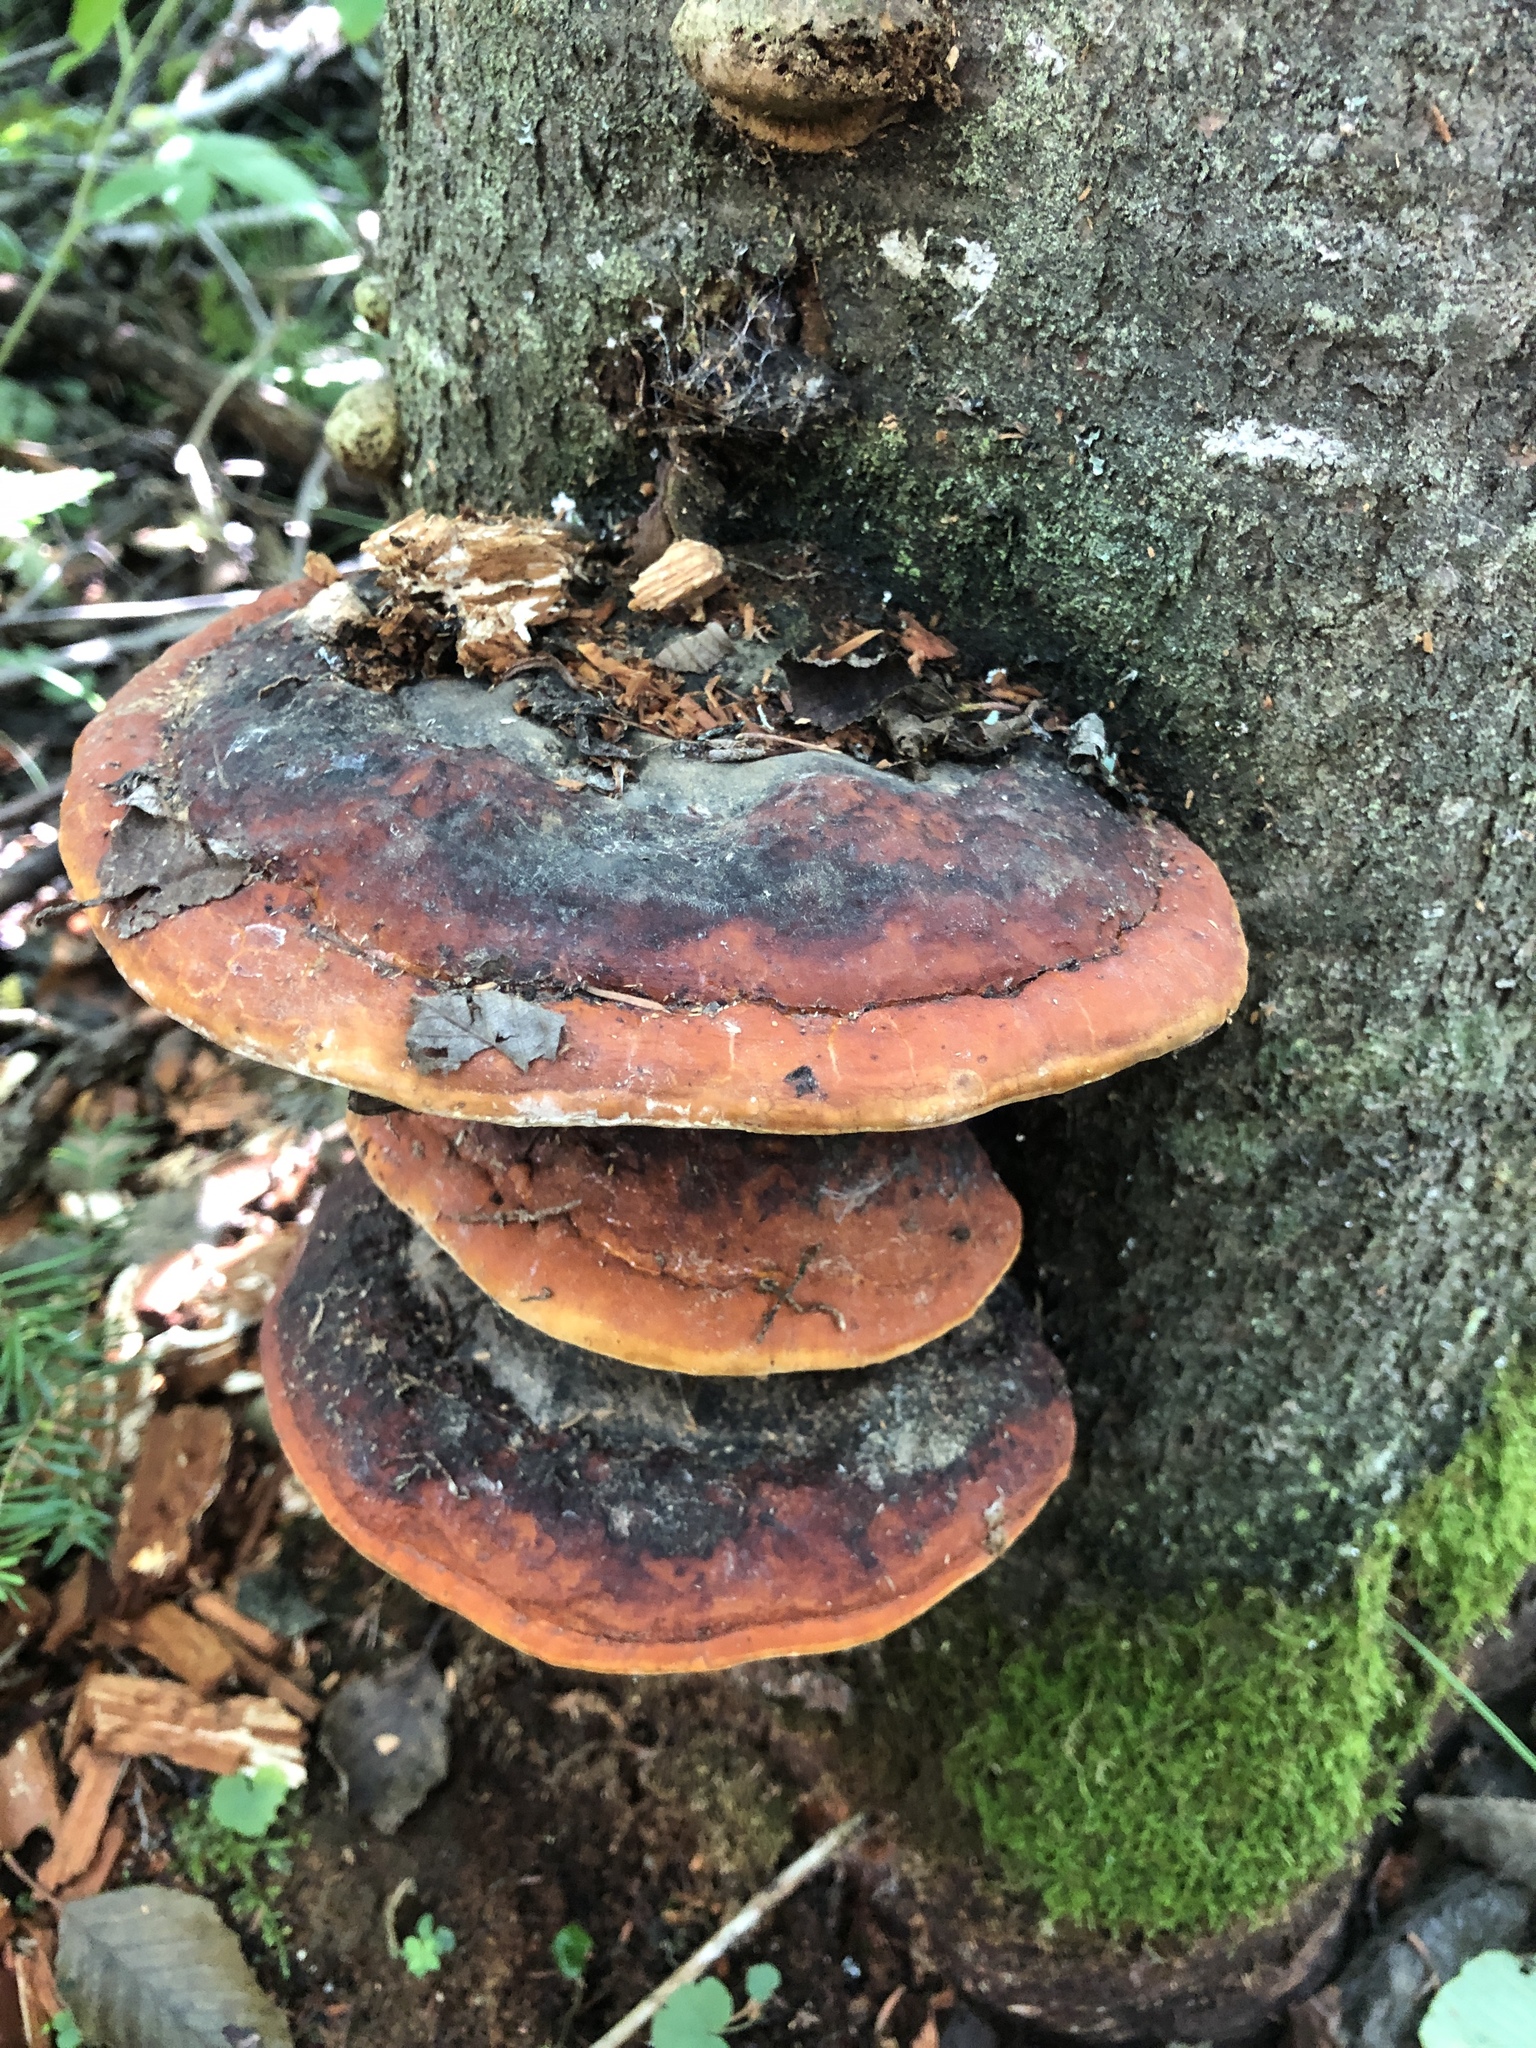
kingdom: Fungi
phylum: Basidiomycota
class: Agaricomycetes
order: Polyporales
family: Fomitopsidaceae
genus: Fomitopsis
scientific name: Fomitopsis mounceae
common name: Northern red belt
